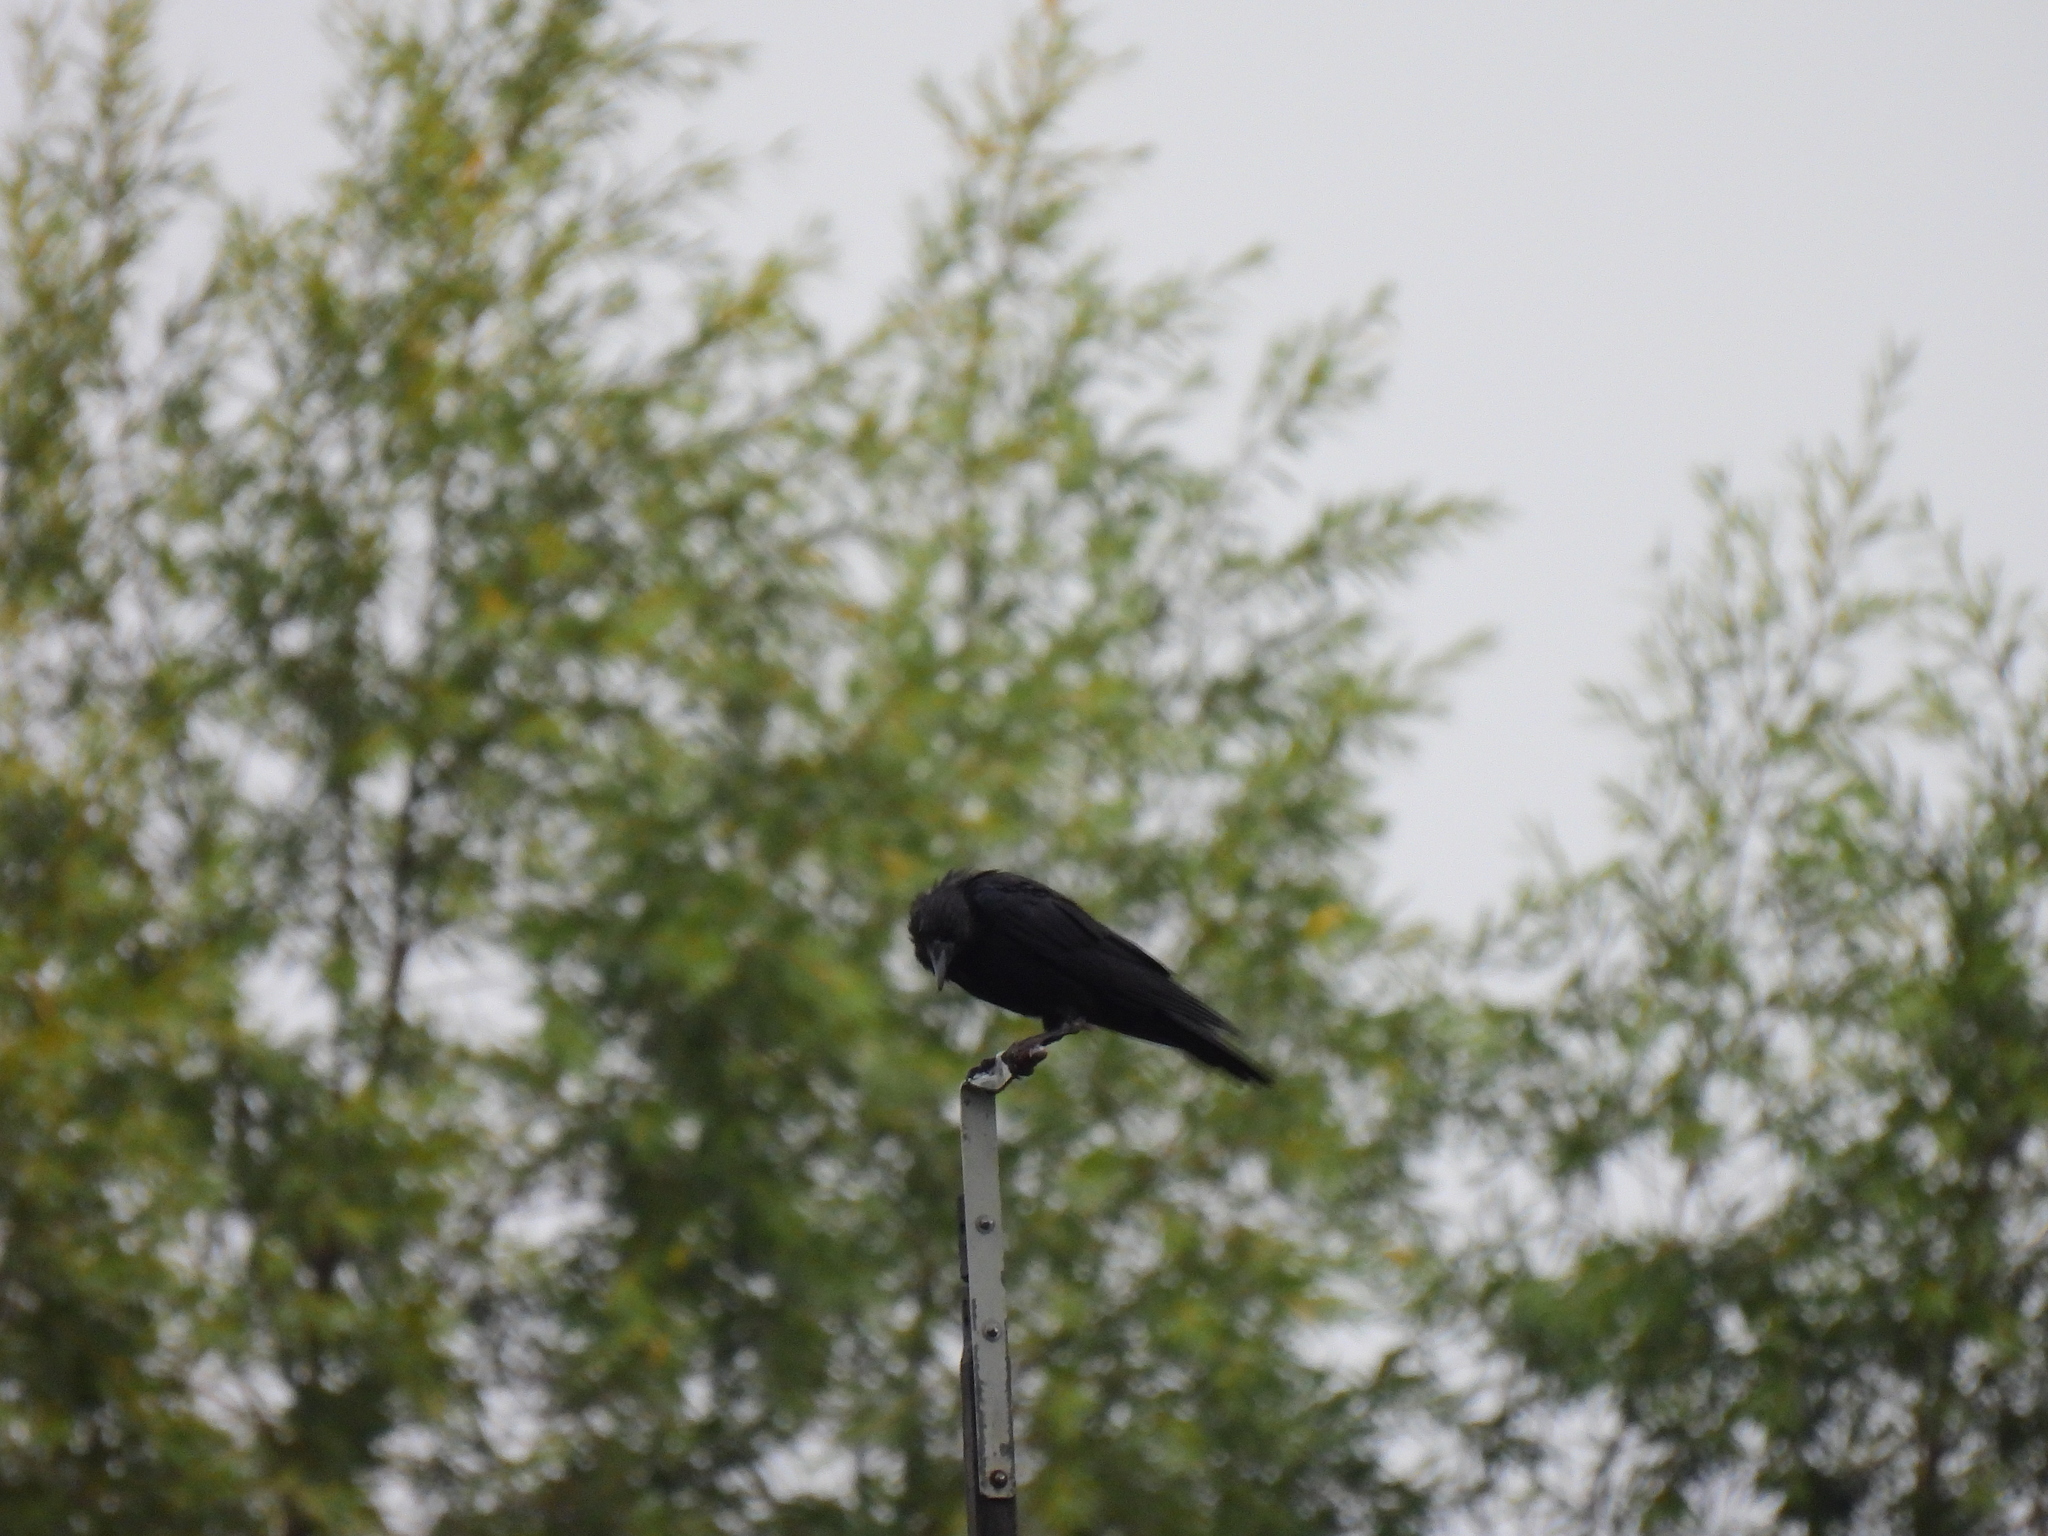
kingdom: Animalia
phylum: Chordata
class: Aves
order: Passeriformes
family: Corvidae
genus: Corvus
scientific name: Corvus corone
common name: Carrion crow
